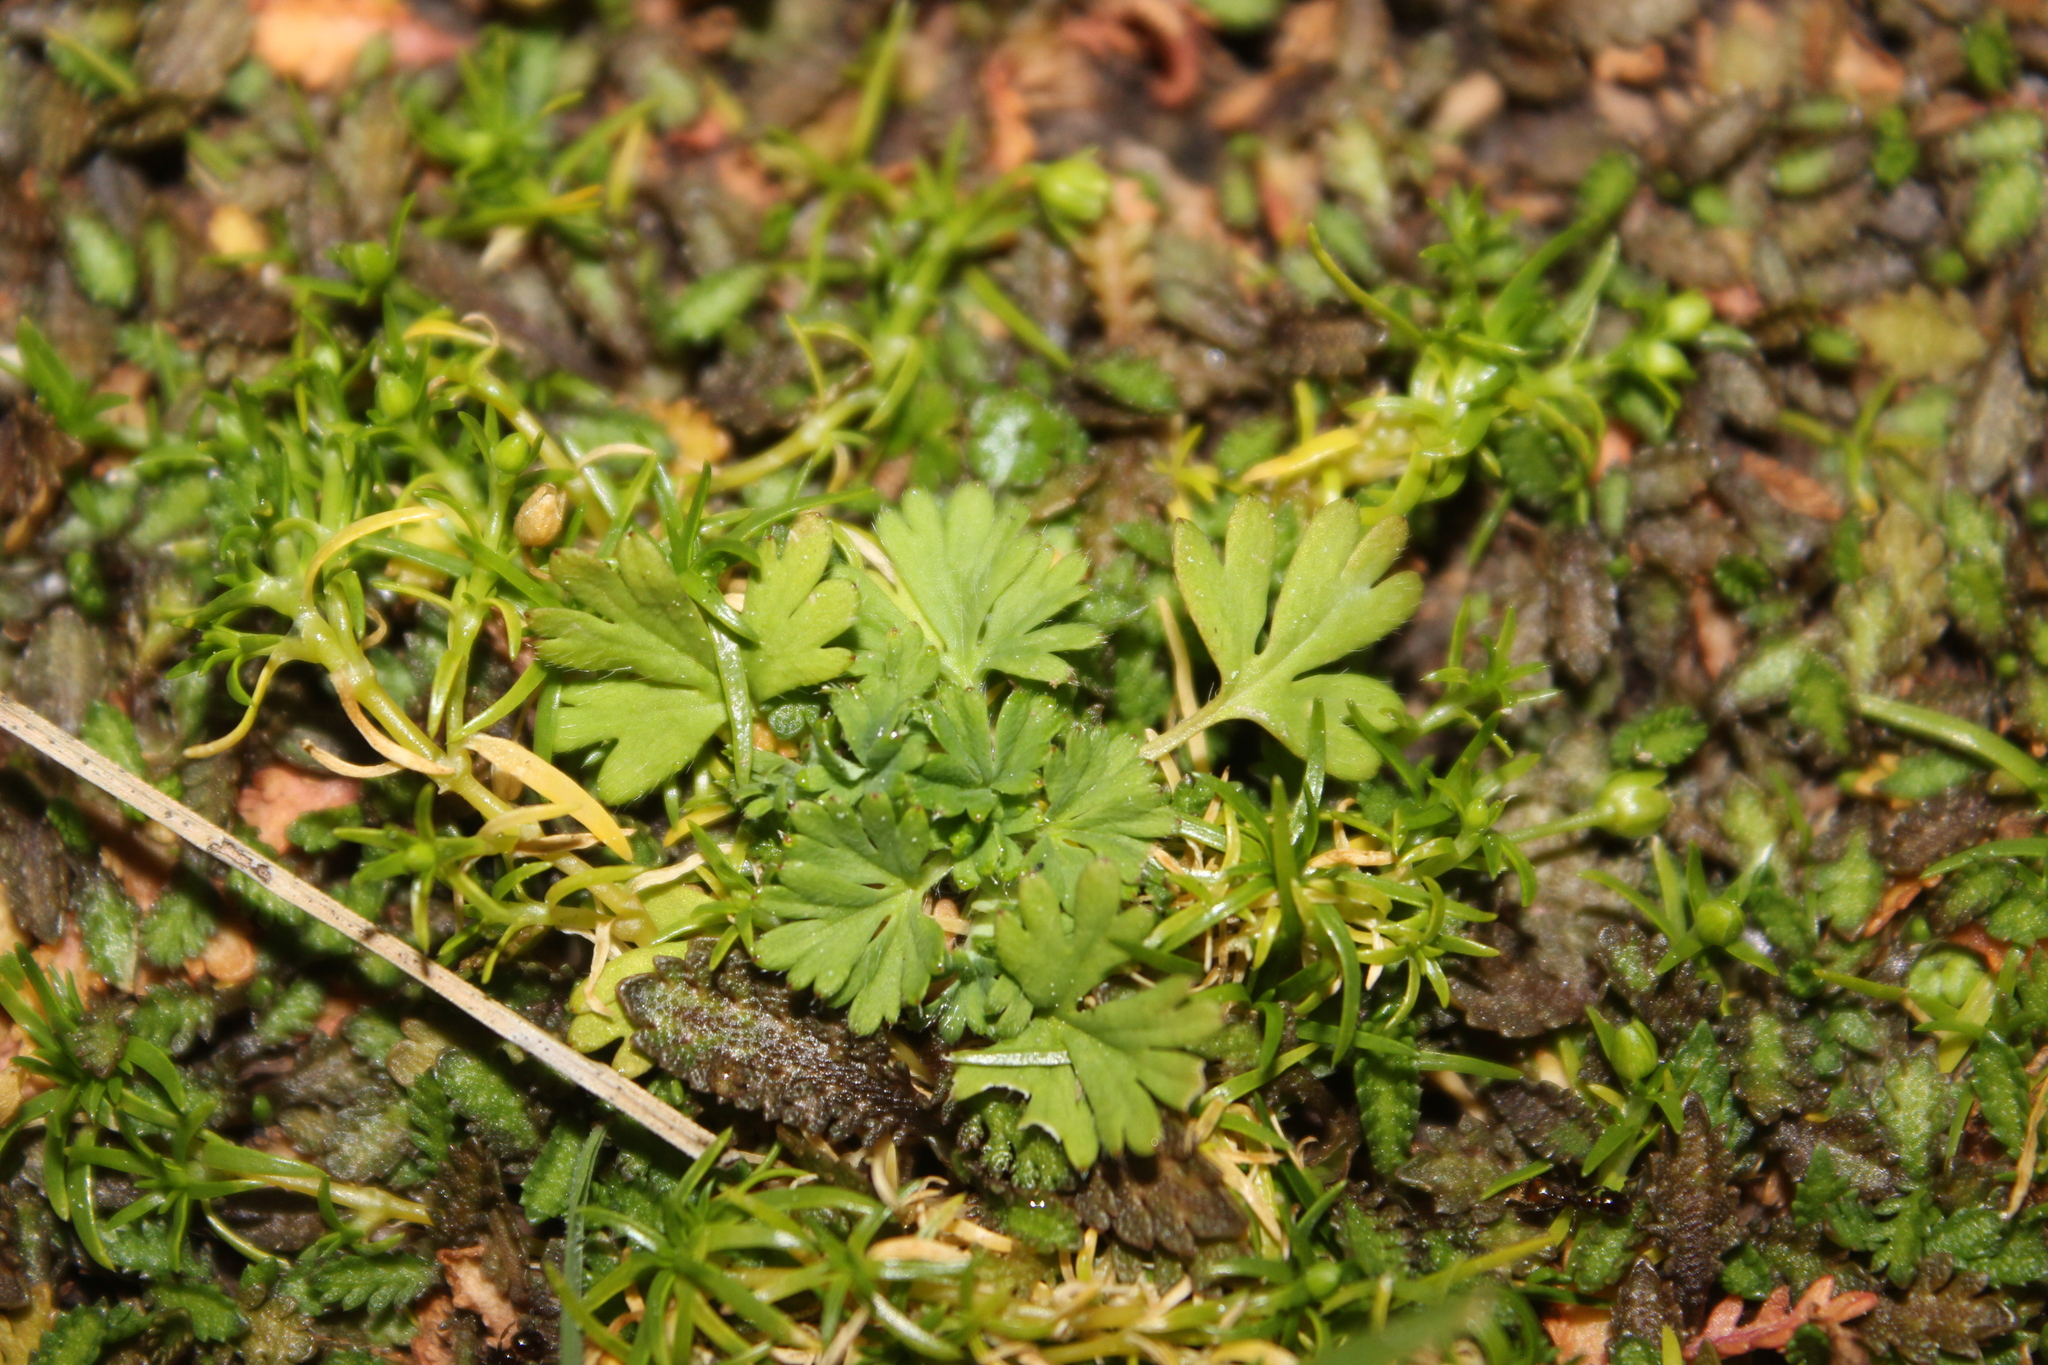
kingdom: Plantae
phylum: Tracheophyta
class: Magnoliopsida
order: Rosales
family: Rosaceae
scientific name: Rosaceae
